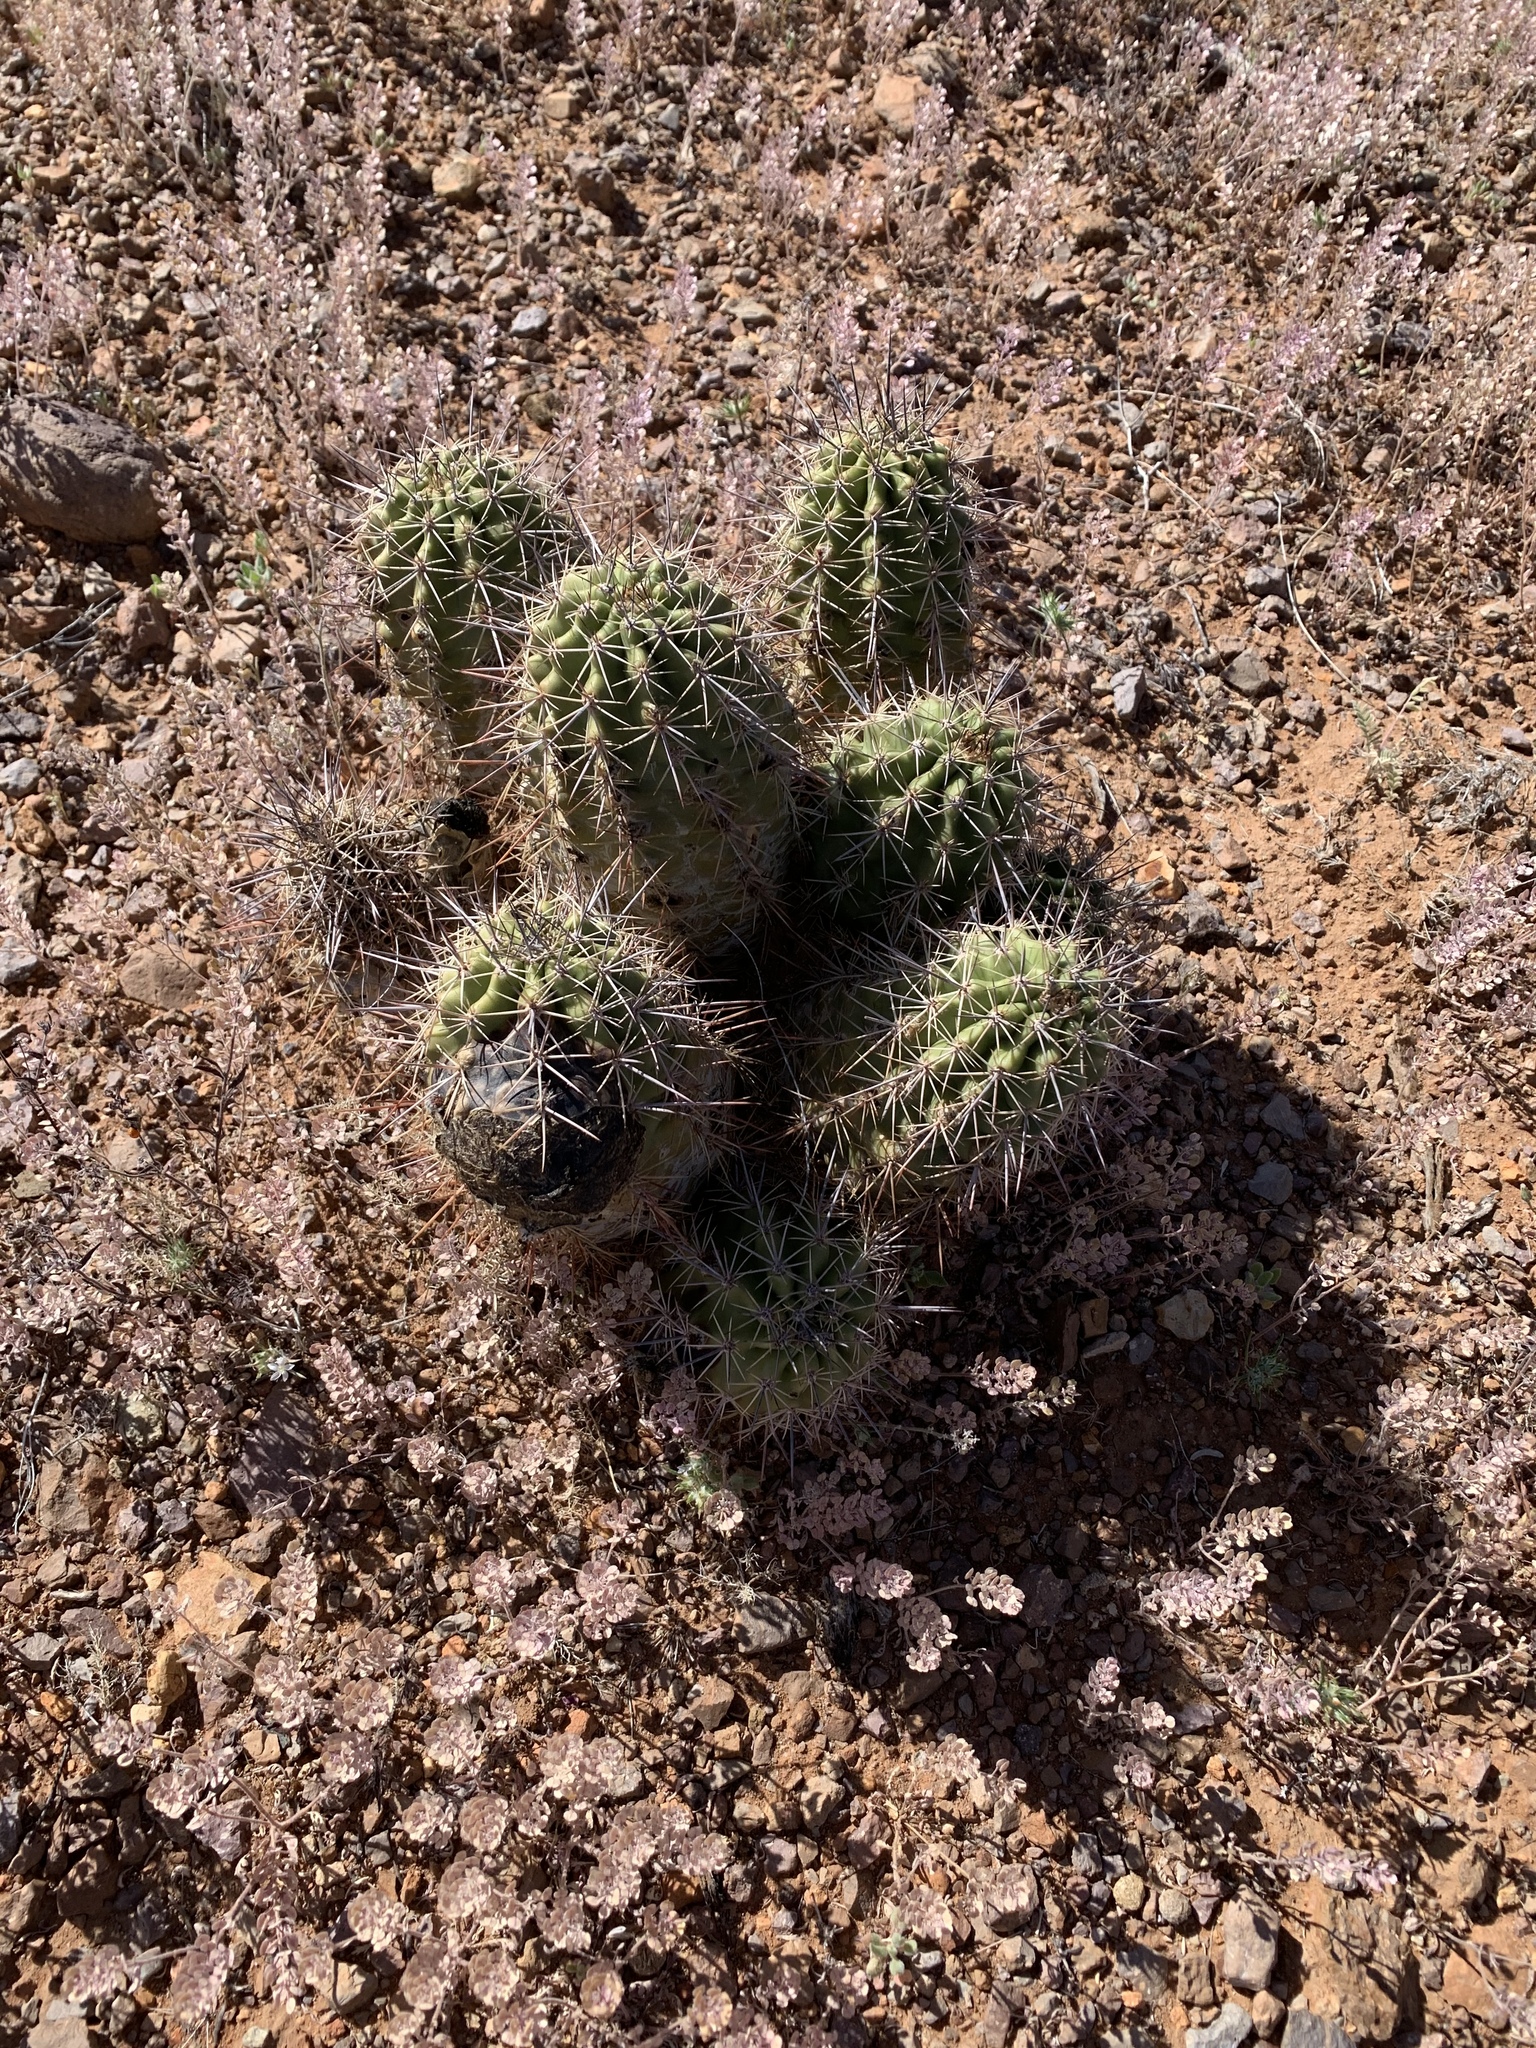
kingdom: Plantae
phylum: Tracheophyta
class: Magnoliopsida
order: Caryophyllales
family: Cactaceae
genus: Echinocereus
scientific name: Echinocereus coccineus
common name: Scarlet hedgehog cactus
